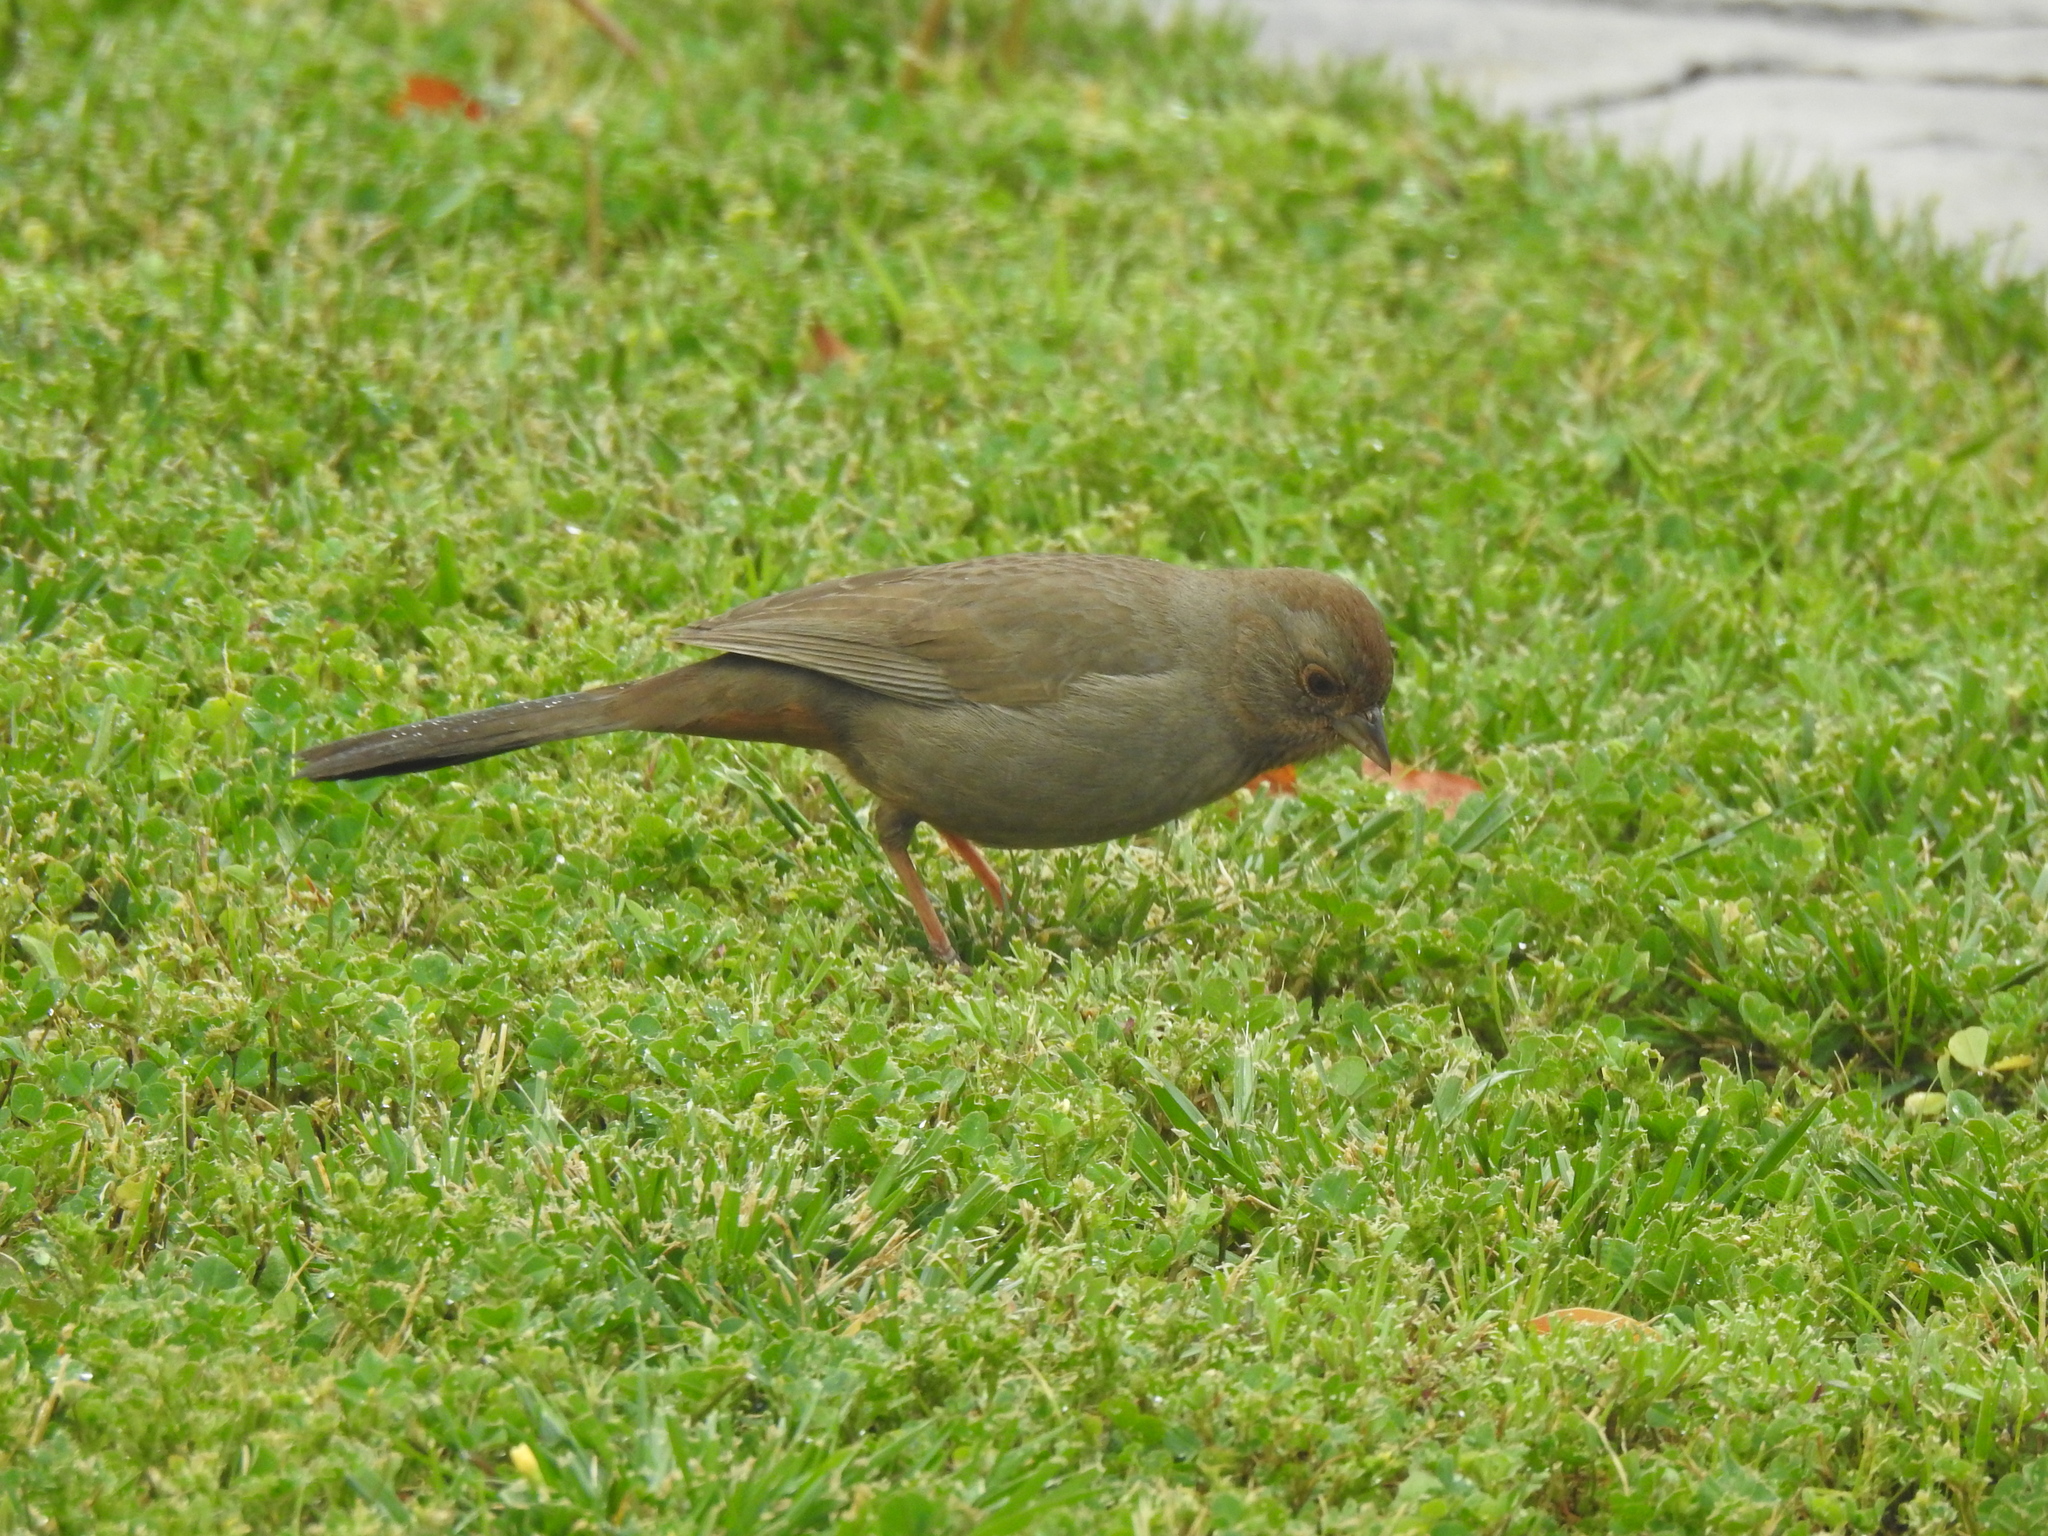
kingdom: Animalia
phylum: Chordata
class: Aves
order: Passeriformes
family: Passerellidae
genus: Melozone
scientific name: Melozone crissalis
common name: California towhee
